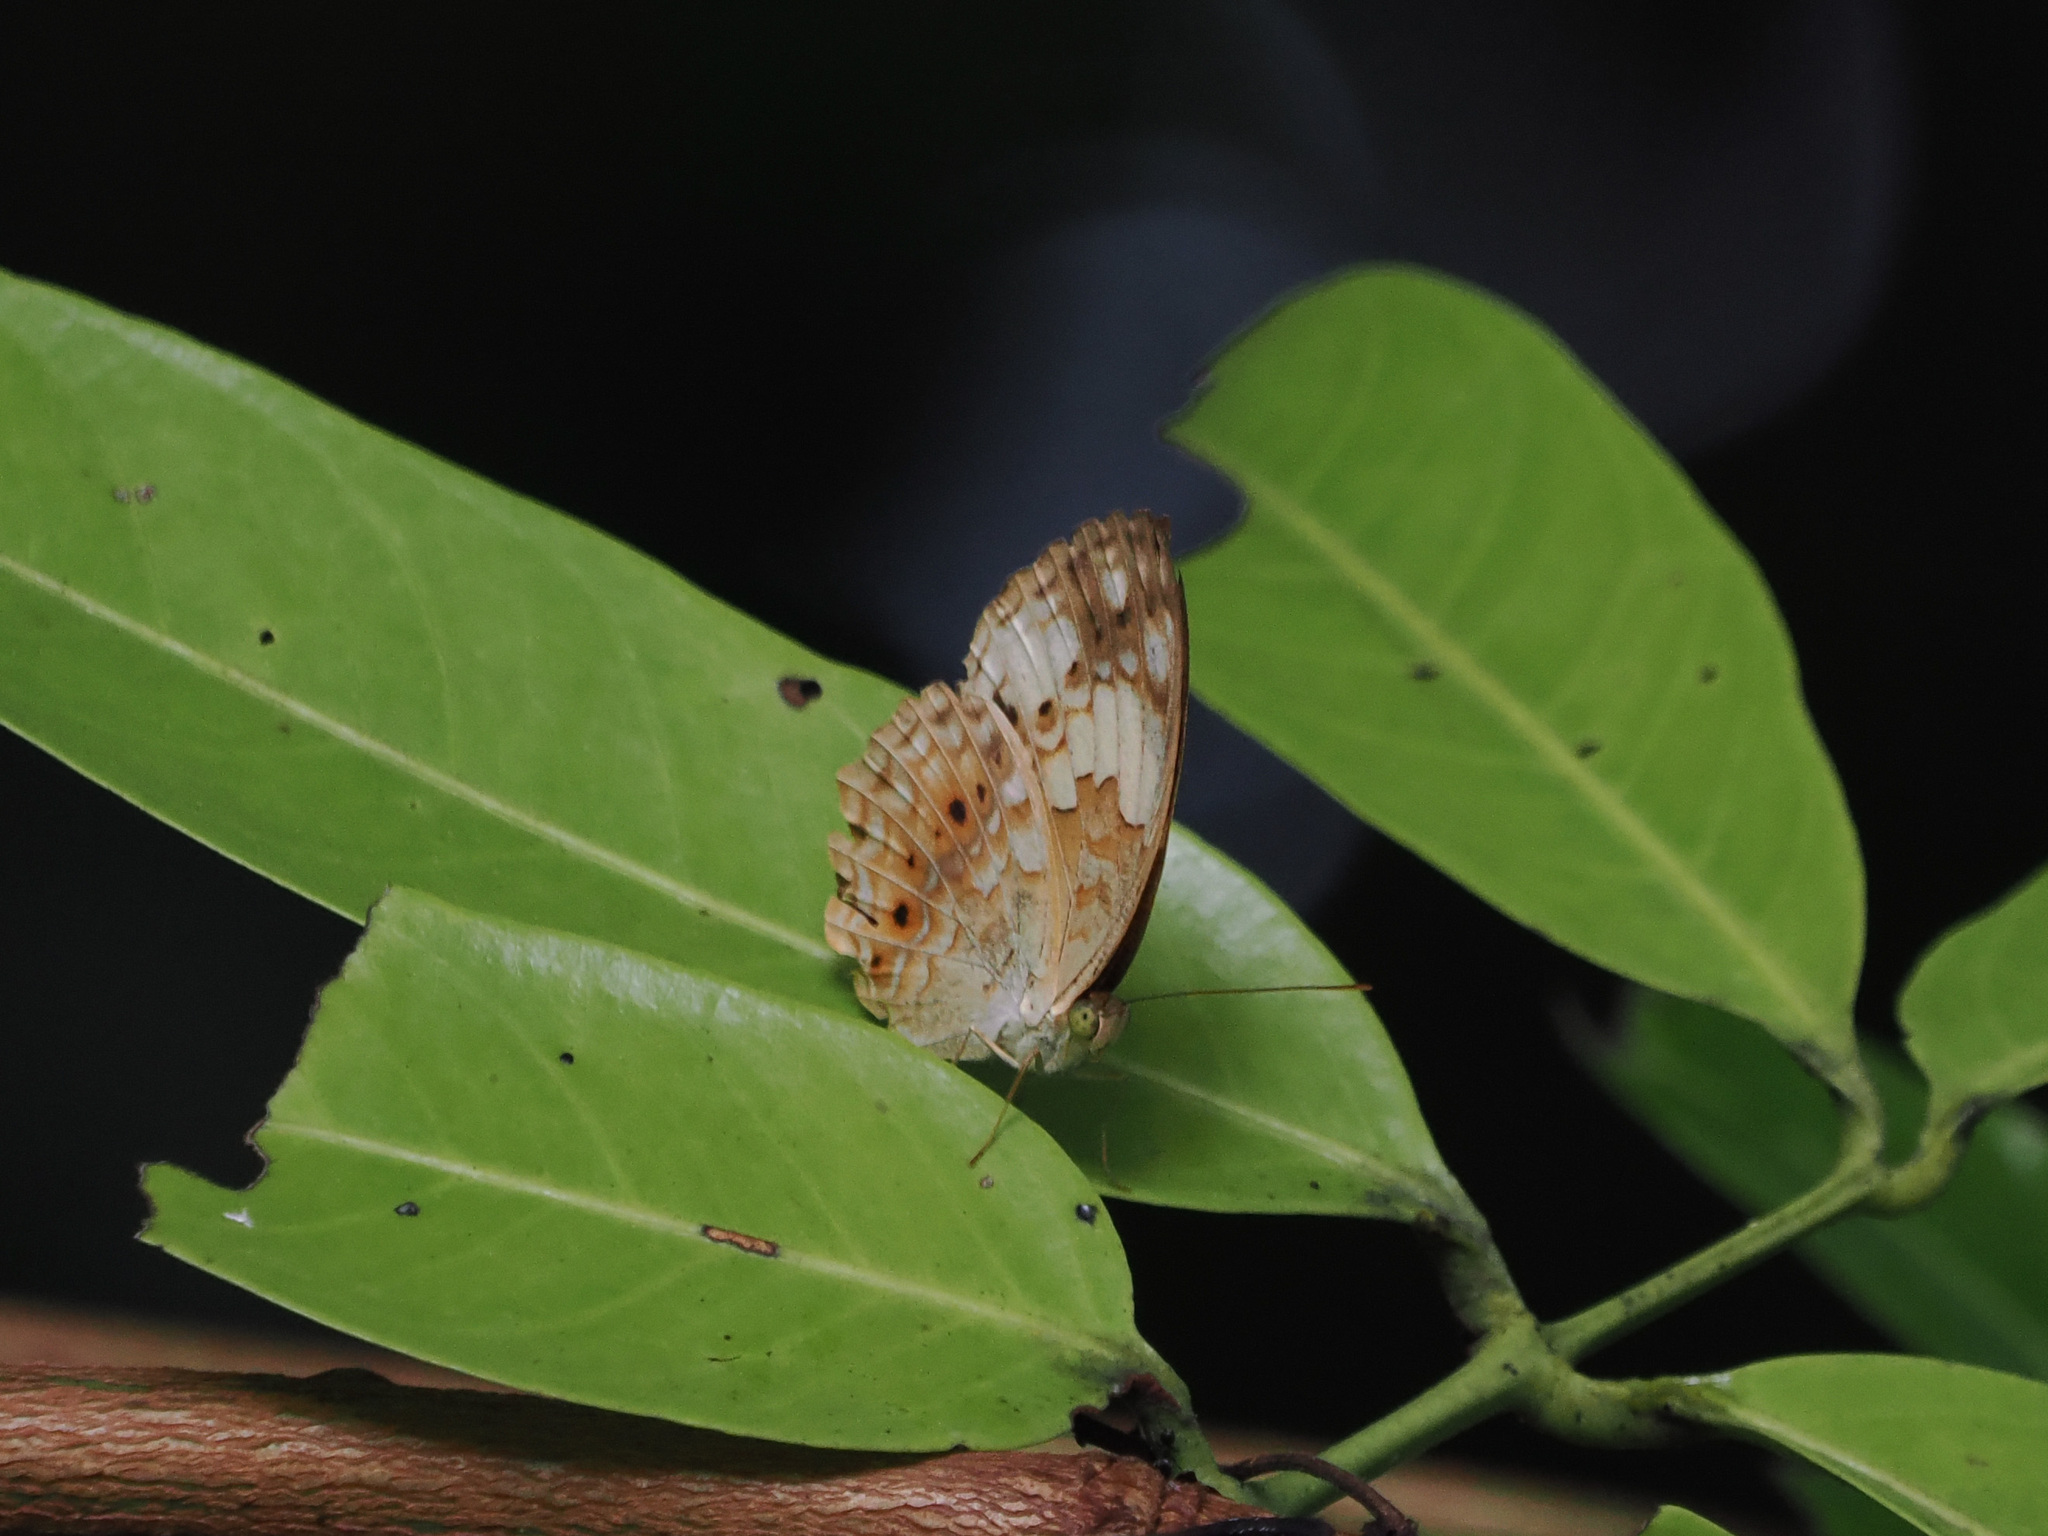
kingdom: Animalia
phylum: Arthropoda
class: Insecta
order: Lepidoptera
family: Nymphalidae
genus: Cupha
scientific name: Cupha erymanthis
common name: Rustic
